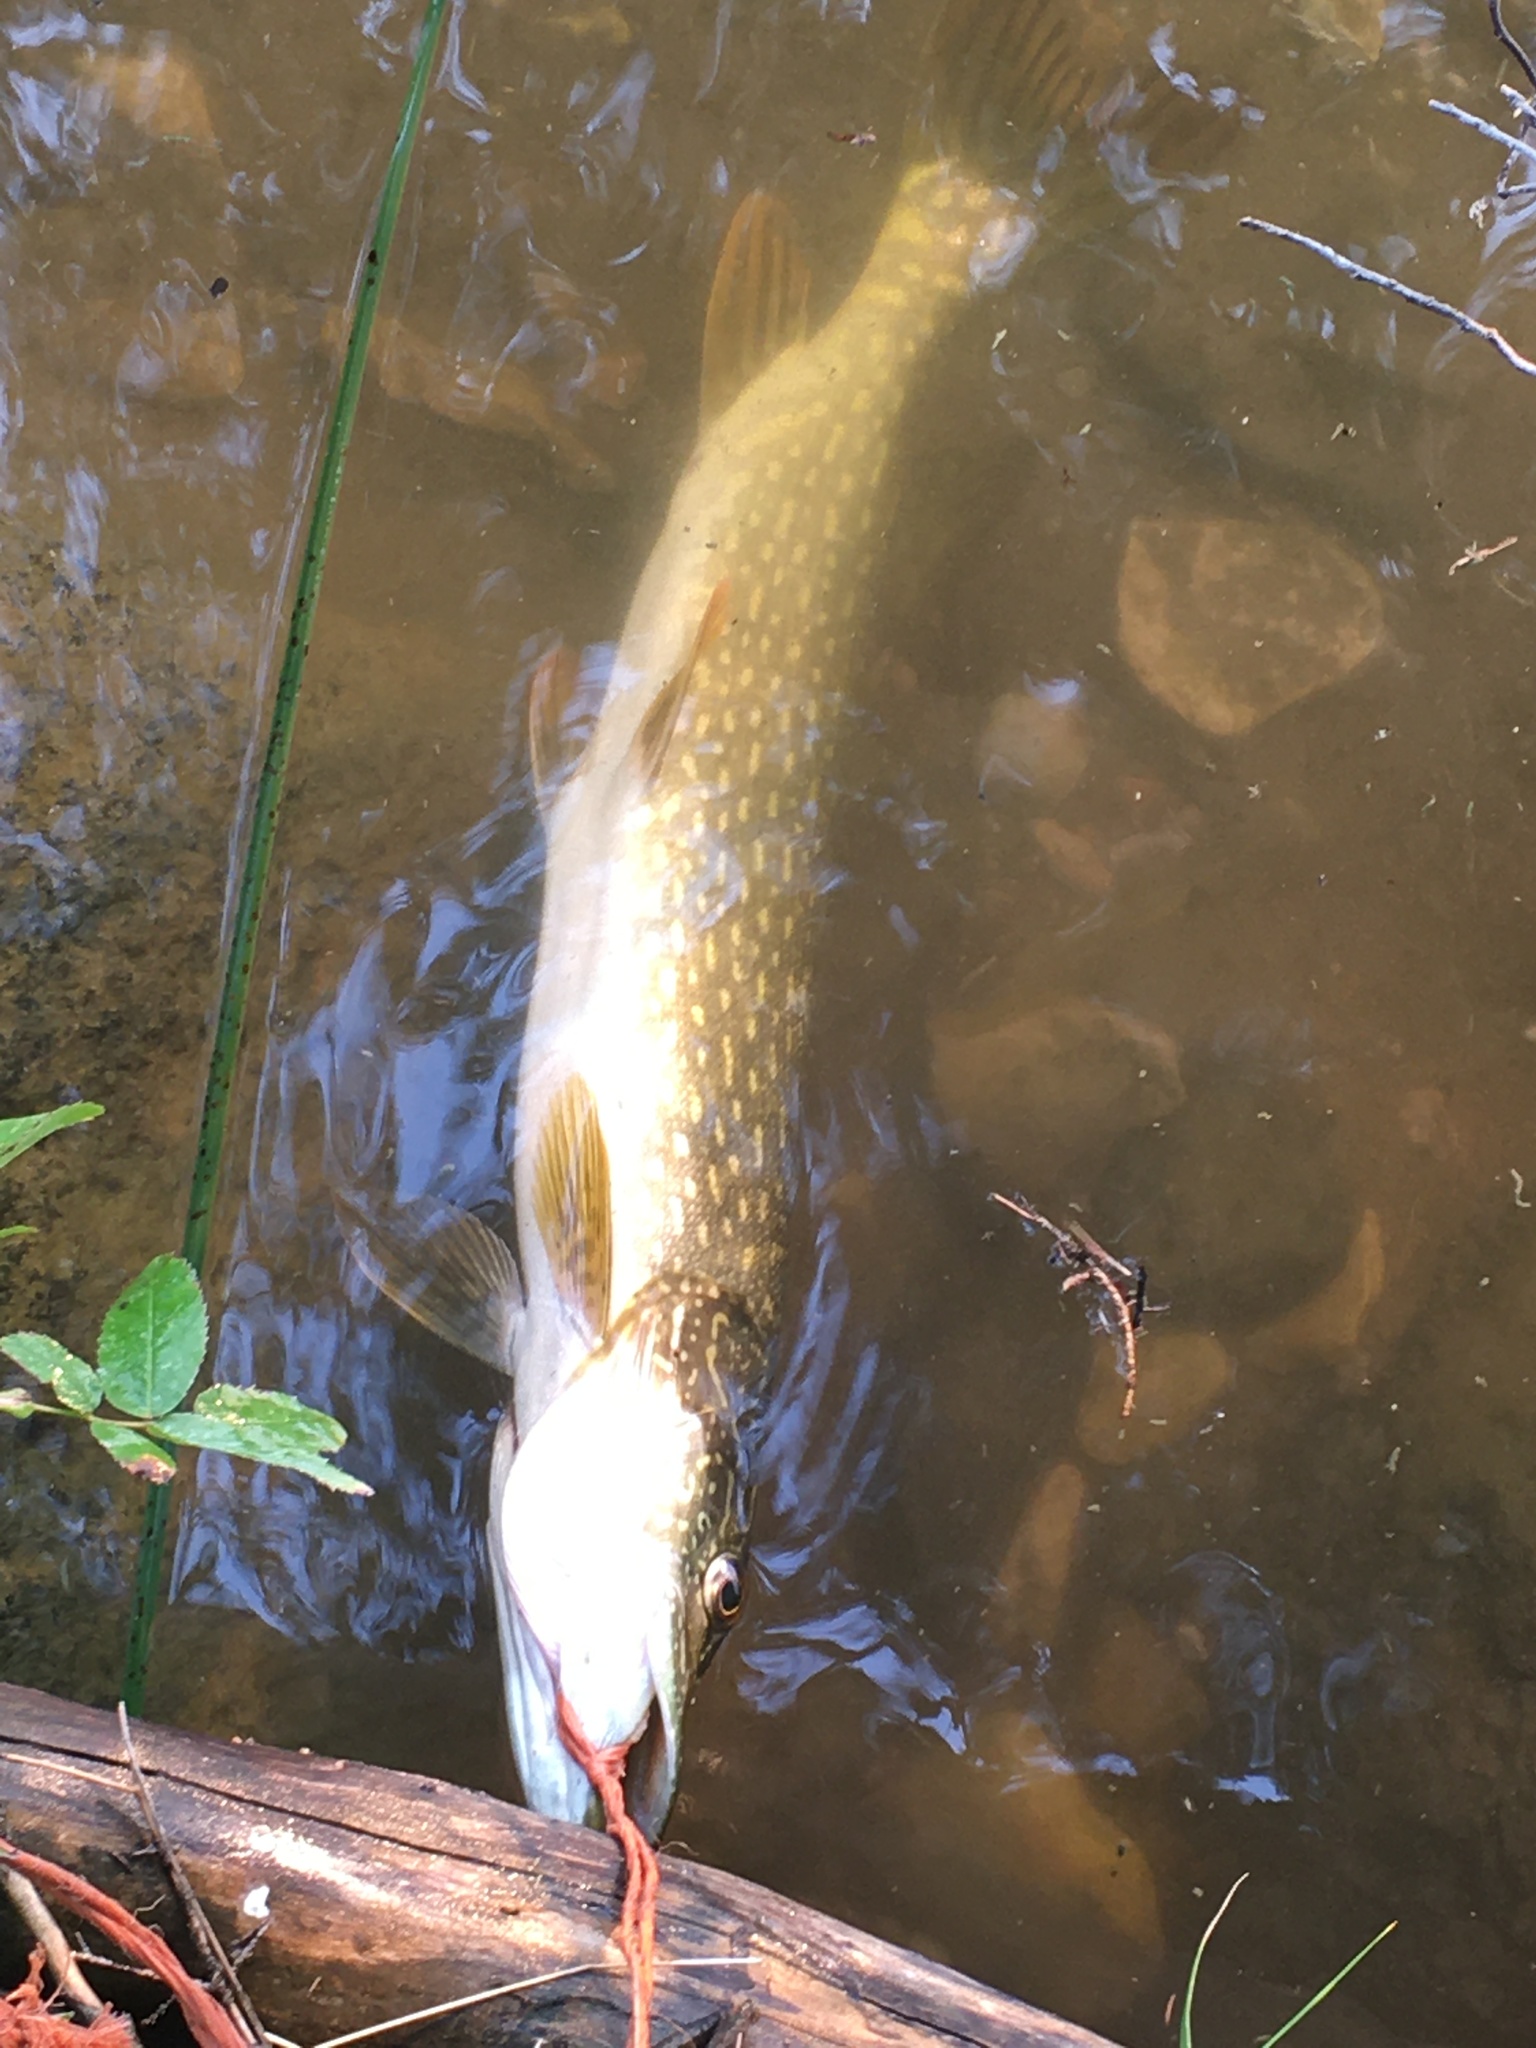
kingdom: Animalia
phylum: Chordata
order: Esociformes
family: Esocidae
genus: Esox
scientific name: Esox lucius
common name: Northern pike
